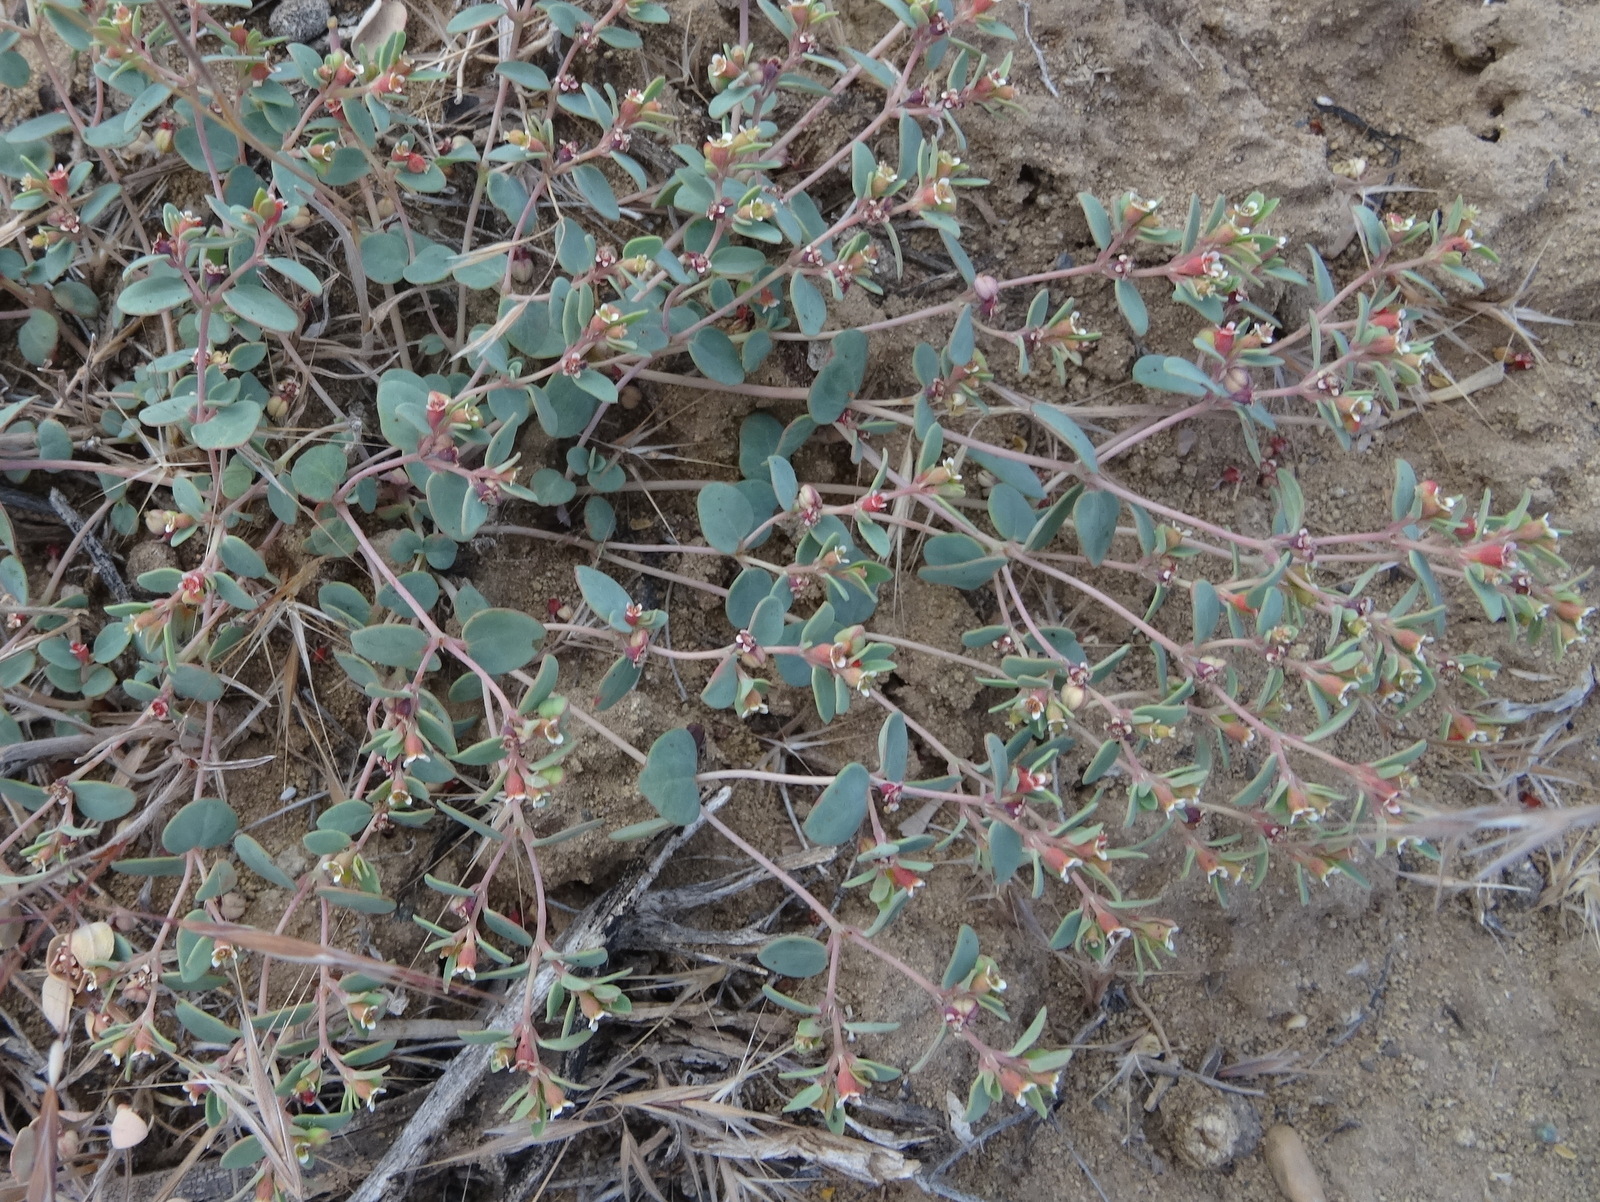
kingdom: Plantae
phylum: Tracheophyta
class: Magnoliopsida
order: Malpighiales
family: Euphorbiaceae
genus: Euphorbia
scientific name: Euphorbia fendleri
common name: Fendler's euphorbia
